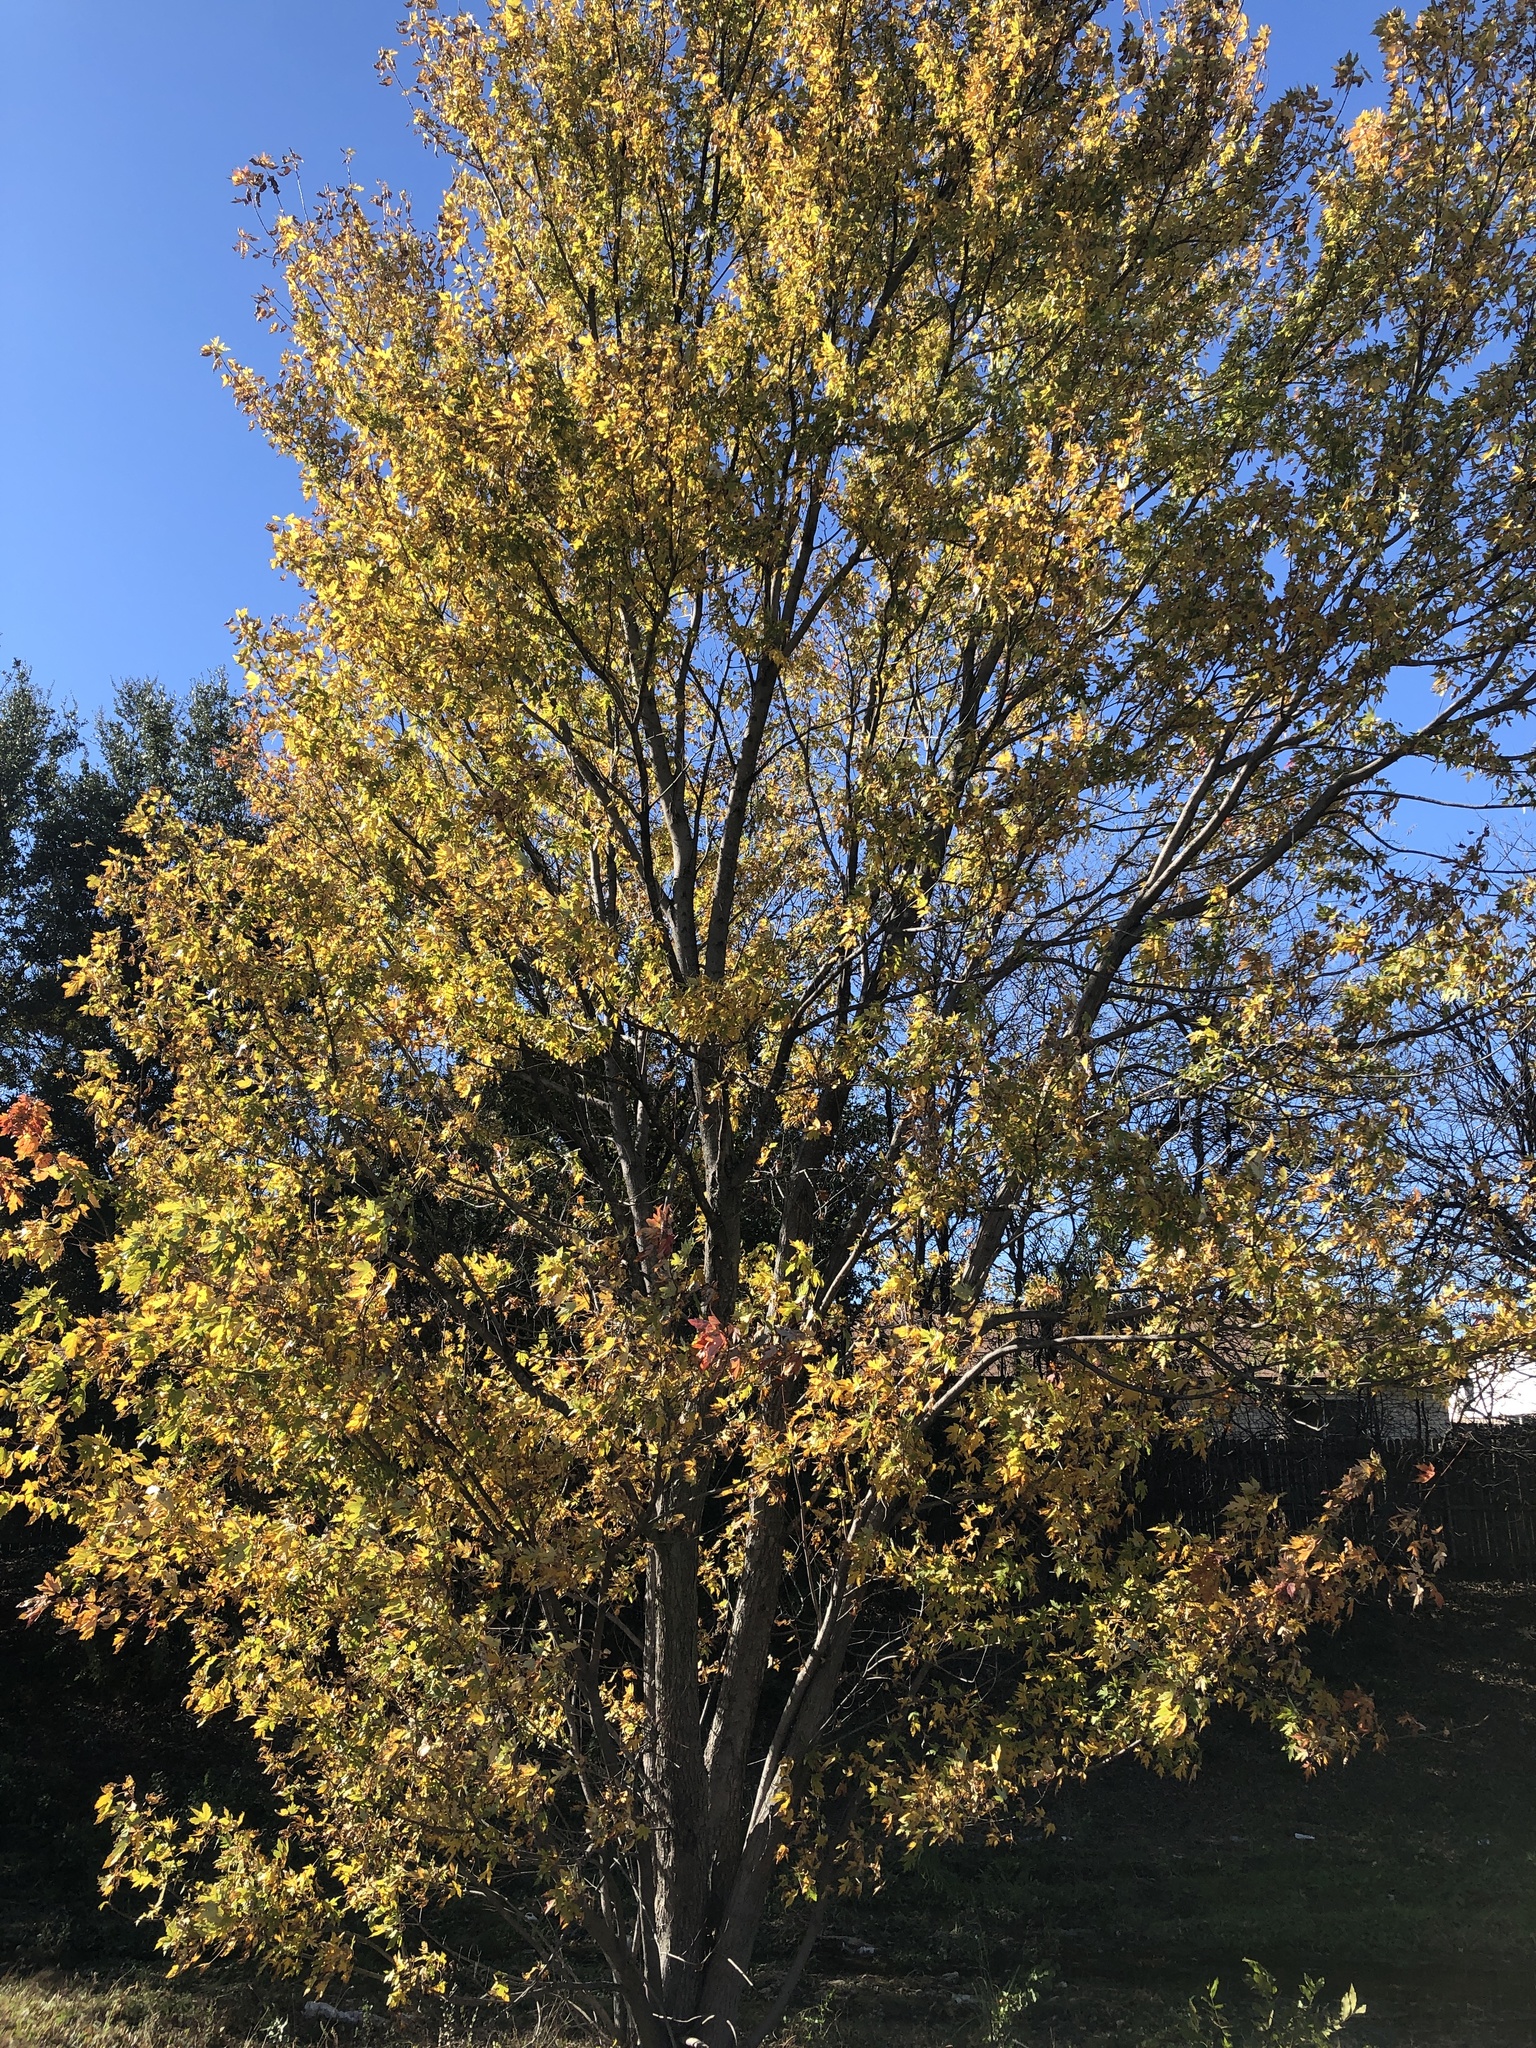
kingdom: Plantae
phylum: Tracheophyta
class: Magnoliopsida
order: Sapindales
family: Sapindaceae
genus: Acer
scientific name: Acer saccharinum
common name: Silver maple
